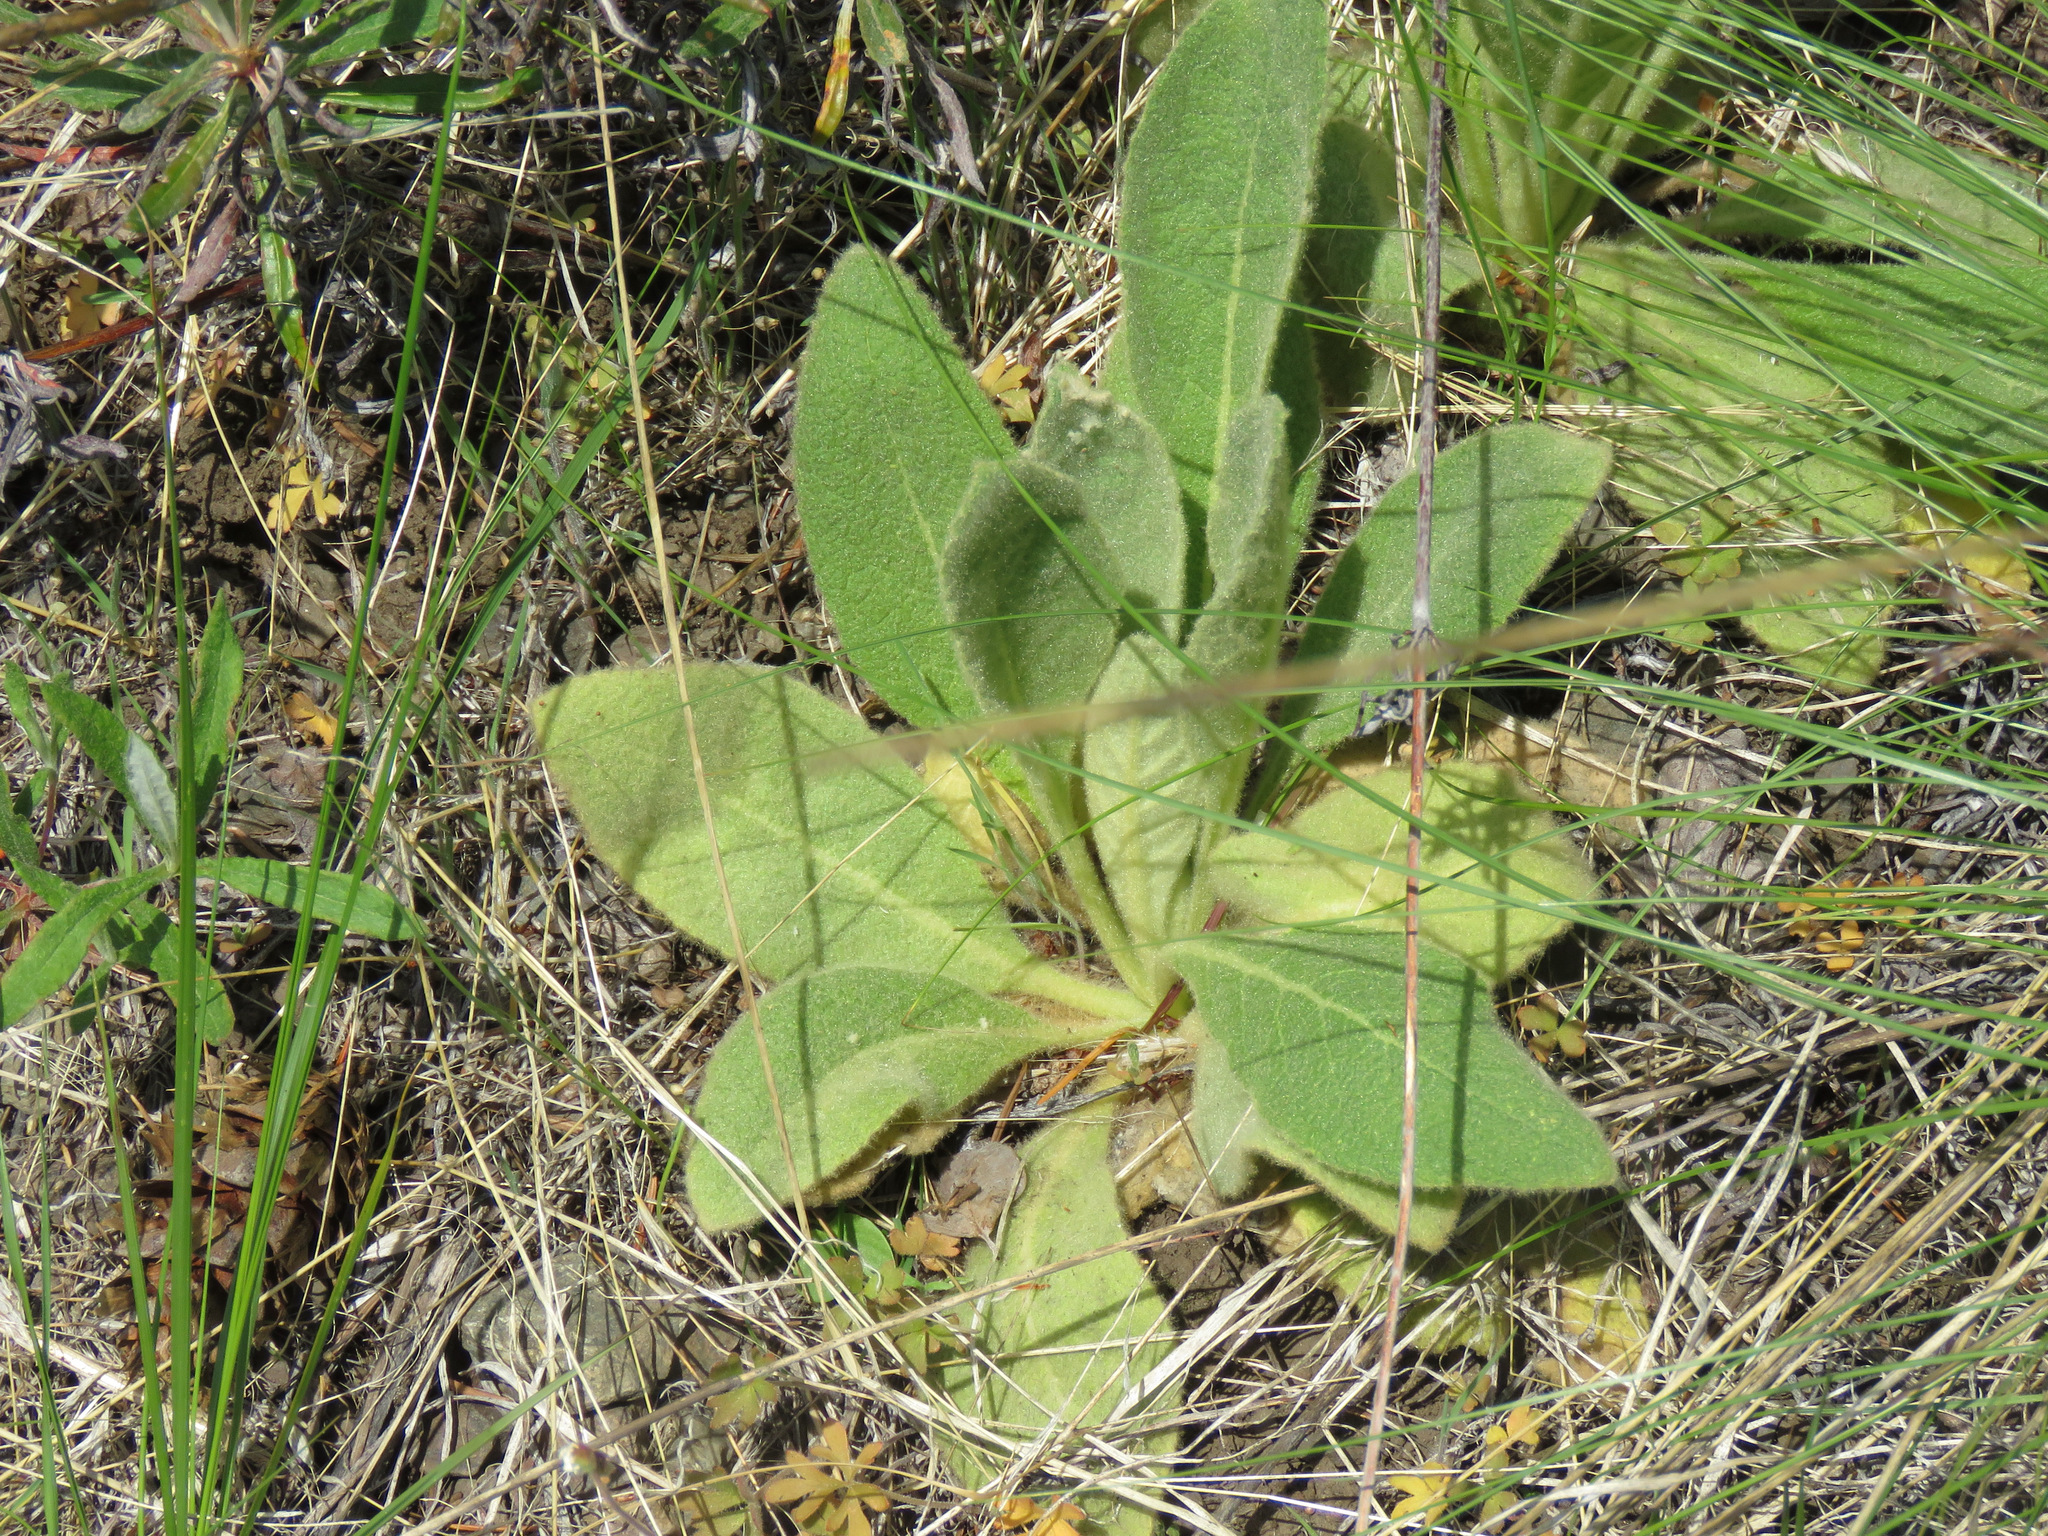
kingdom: Plantae
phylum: Tracheophyta
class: Magnoliopsida
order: Lamiales
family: Scrophulariaceae
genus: Verbascum
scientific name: Verbascum thapsus
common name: Common mullein
